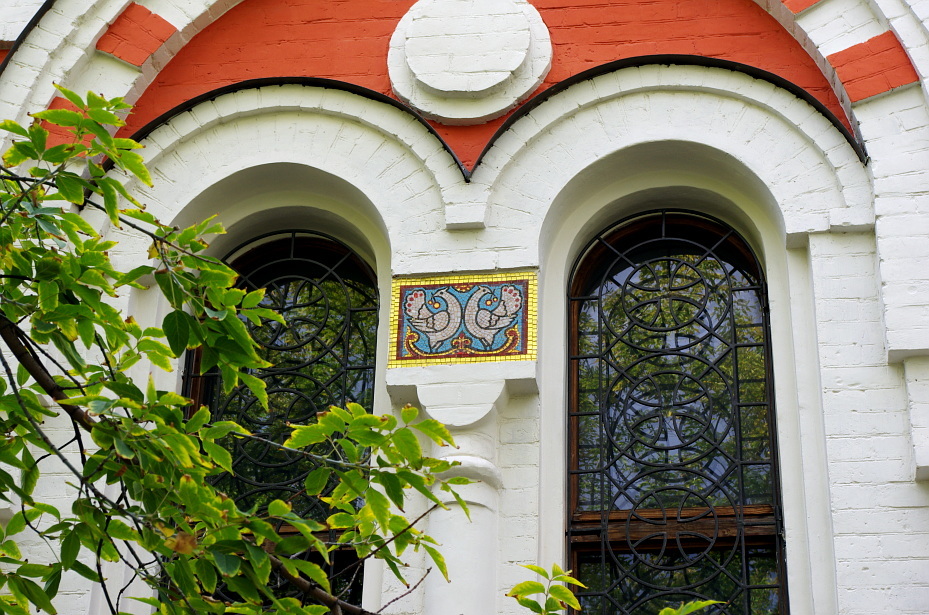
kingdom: Plantae
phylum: Tracheophyta
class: Magnoliopsida
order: Sapindales
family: Sapindaceae
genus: Acer
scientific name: Acer negundo
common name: Ashleaf maple
